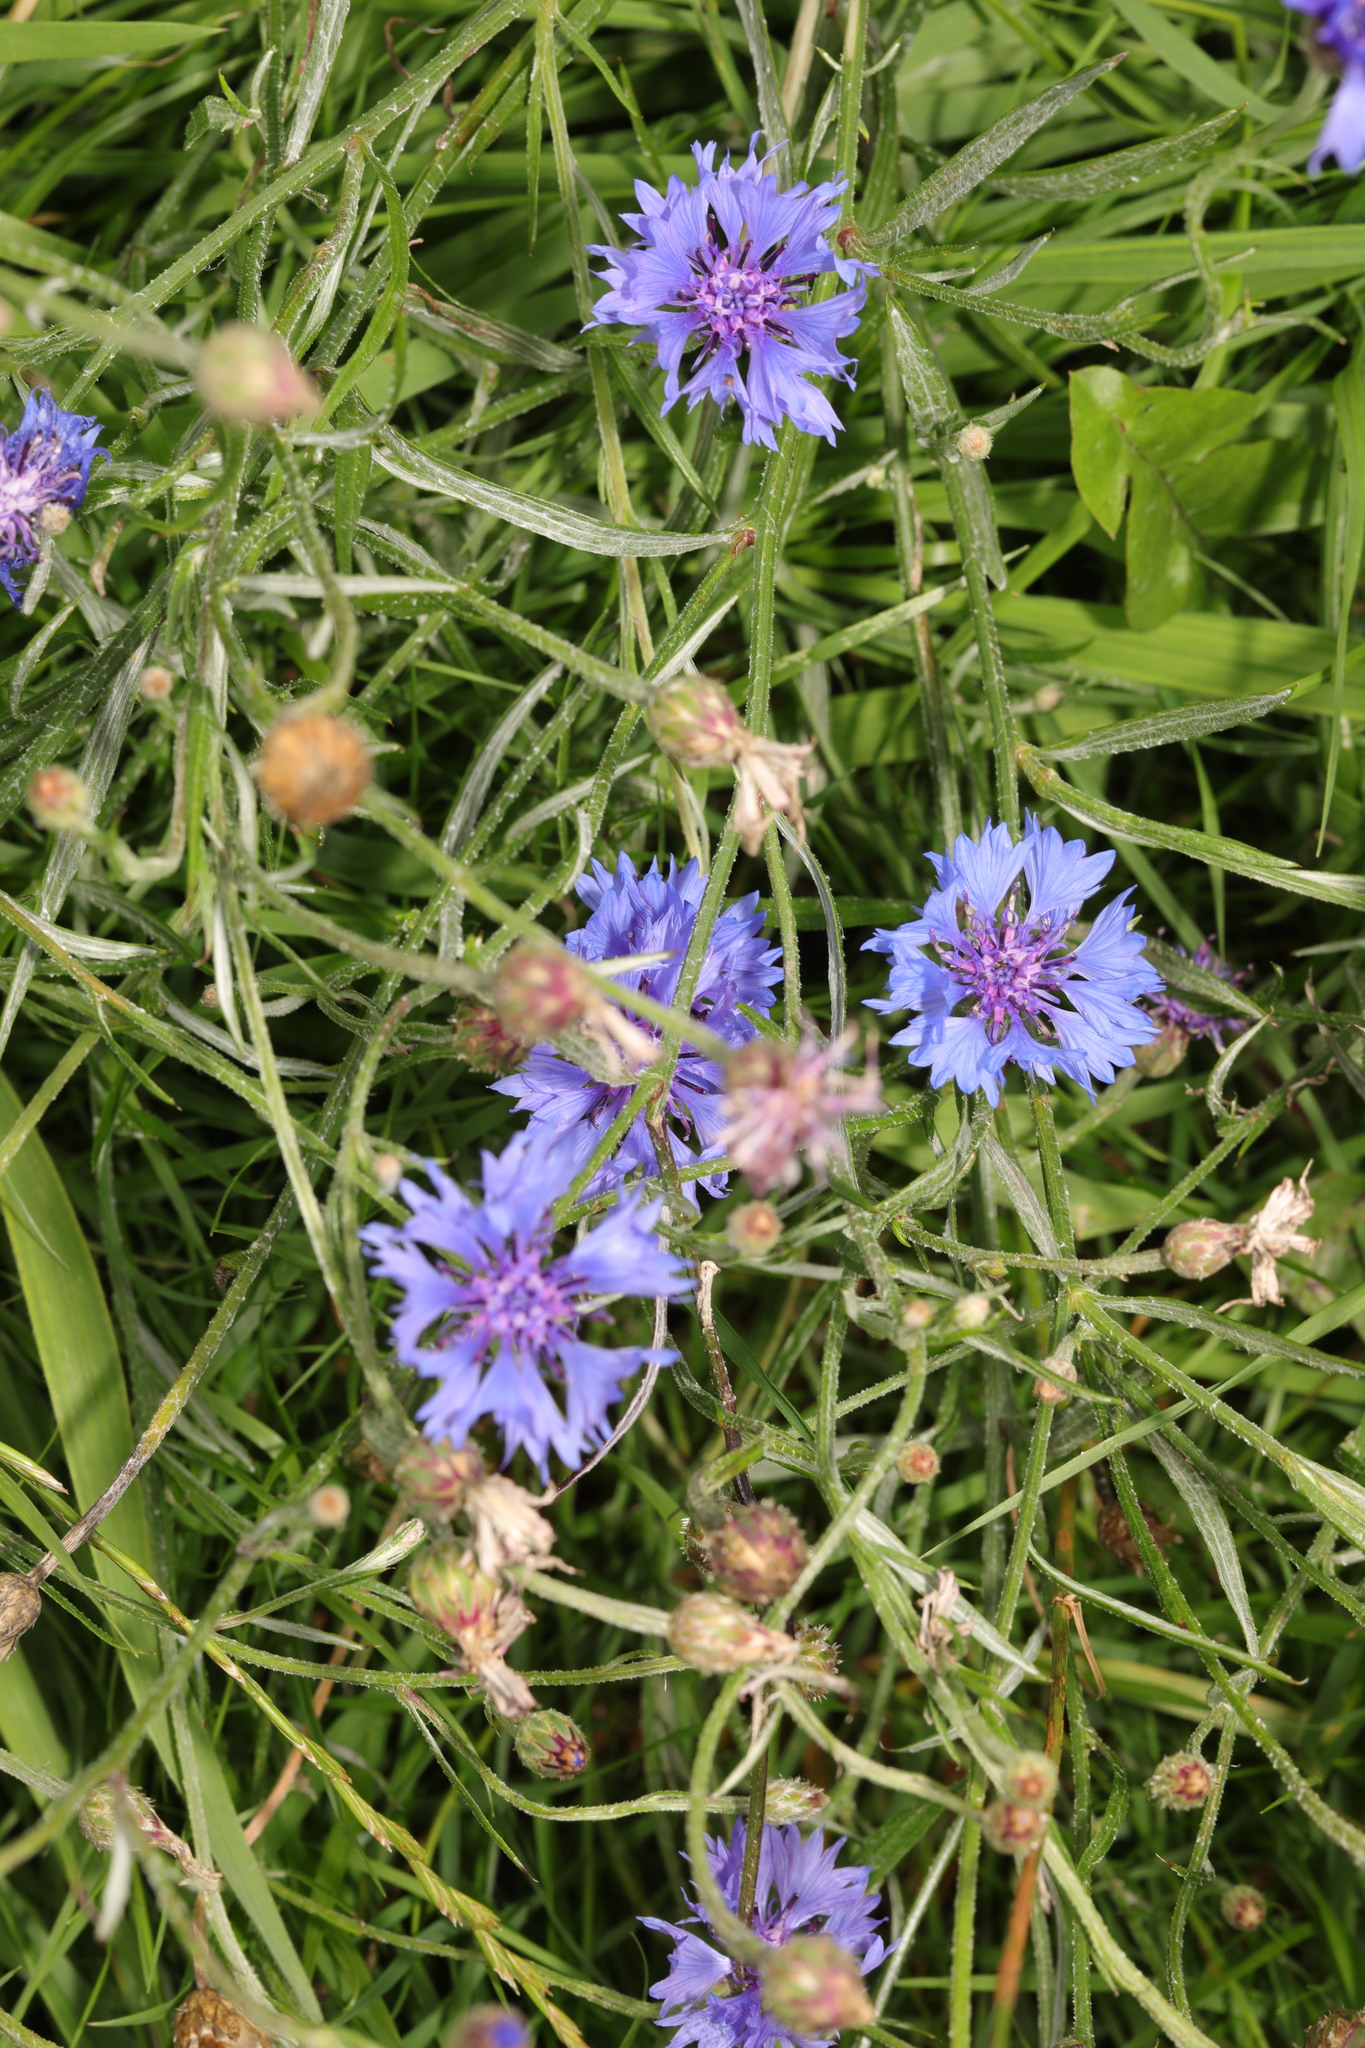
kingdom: Plantae
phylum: Tracheophyta
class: Magnoliopsida
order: Asterales
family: Asteraceae
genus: Centaurea
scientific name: Centaurea cyanus
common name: Cornflower
